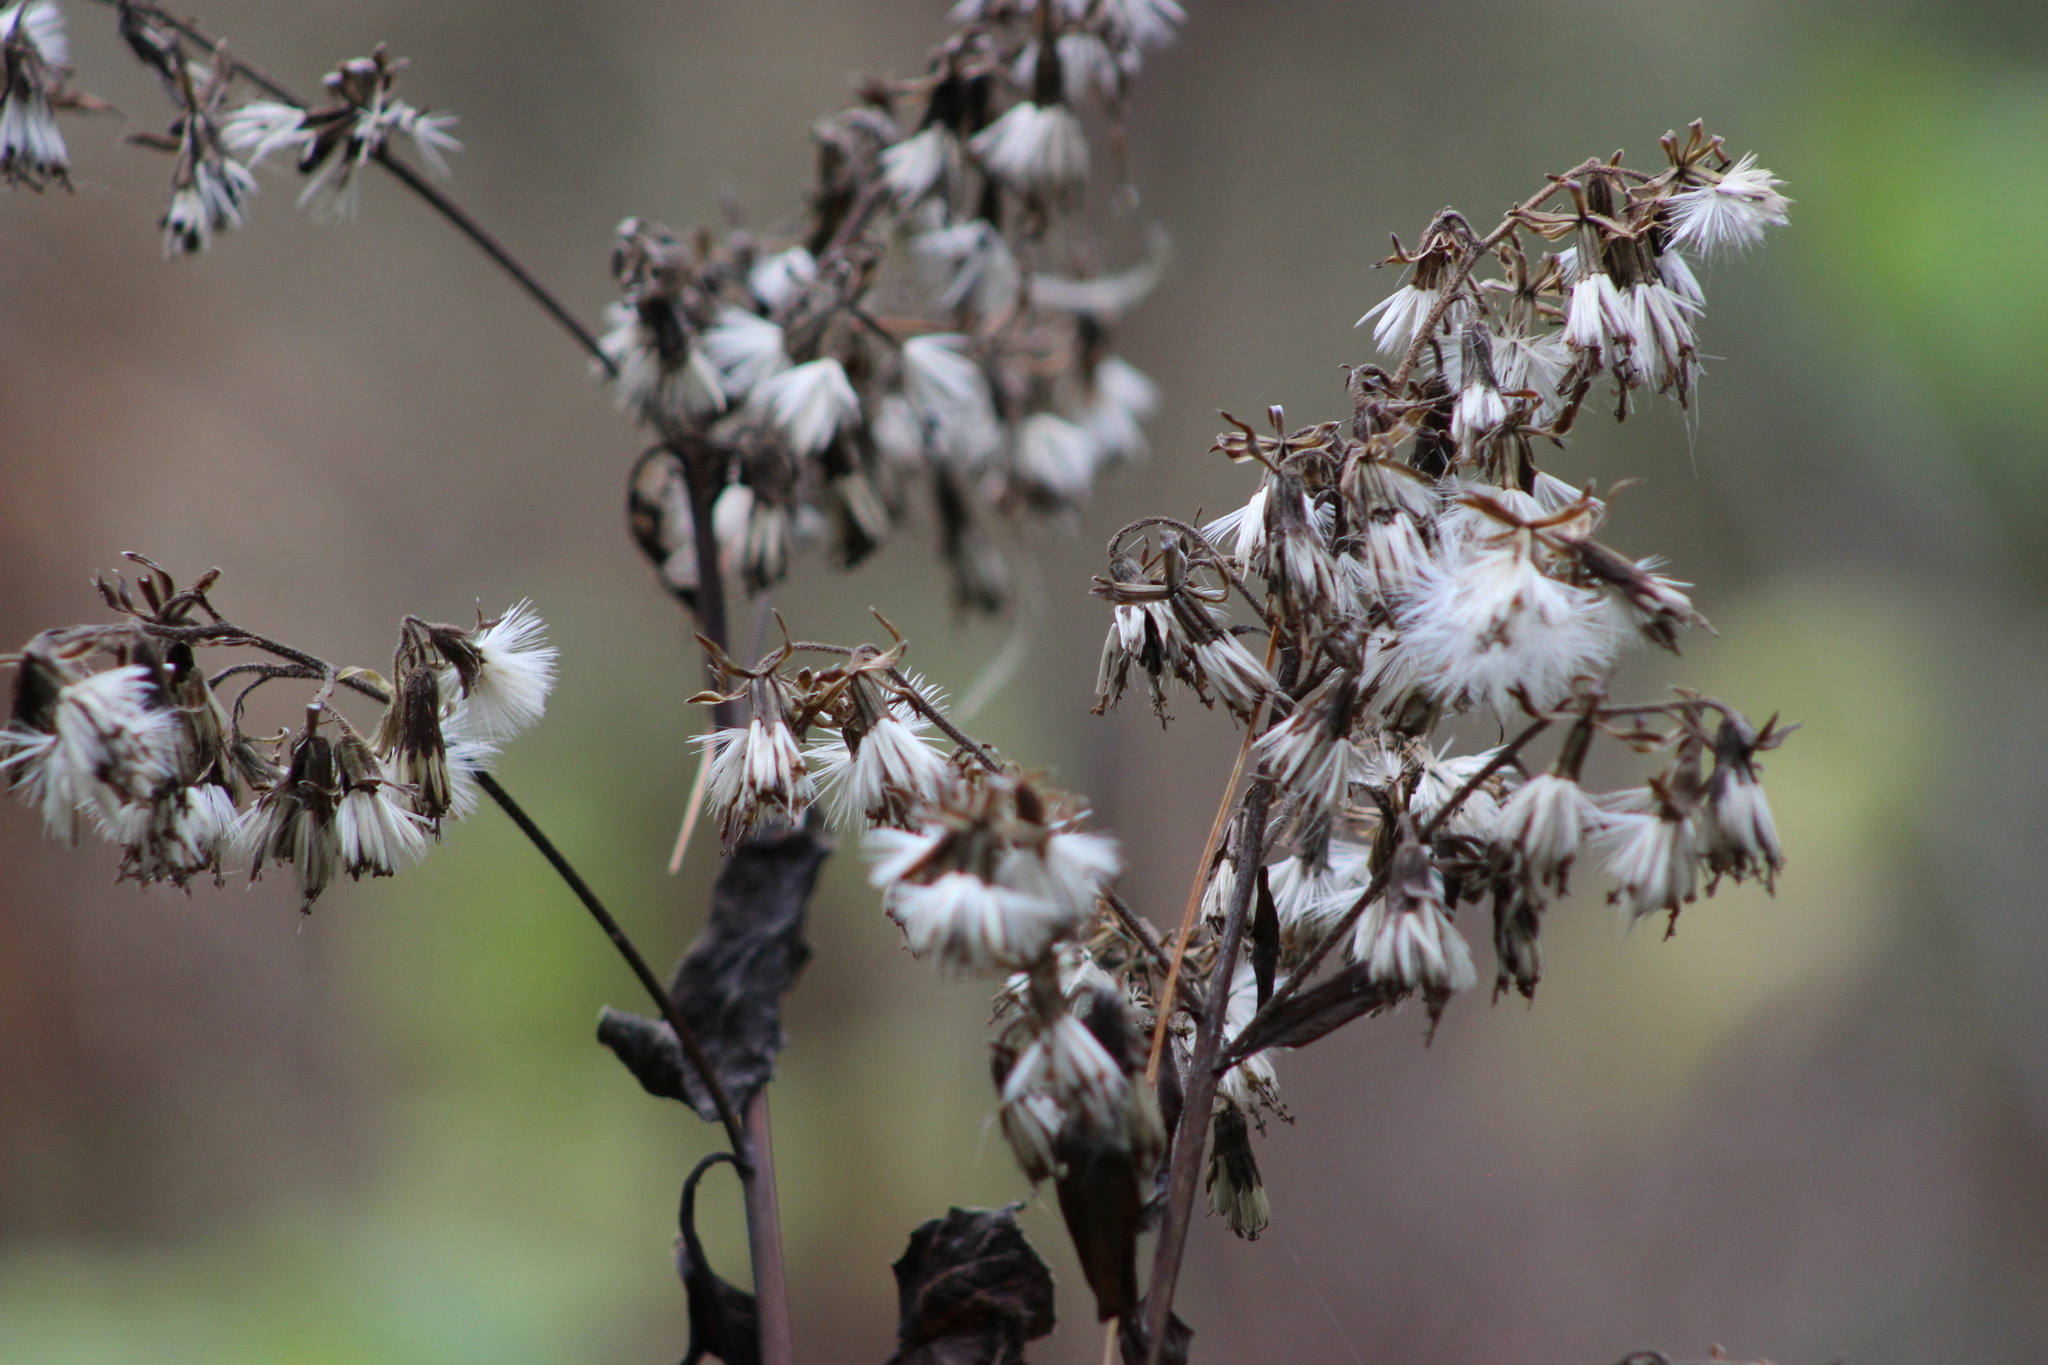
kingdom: Plantae
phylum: Tracheophyta
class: Magnoliopsida
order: Asterales
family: Asteraceae
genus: Parasenecio
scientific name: Parasenecio hastatus
